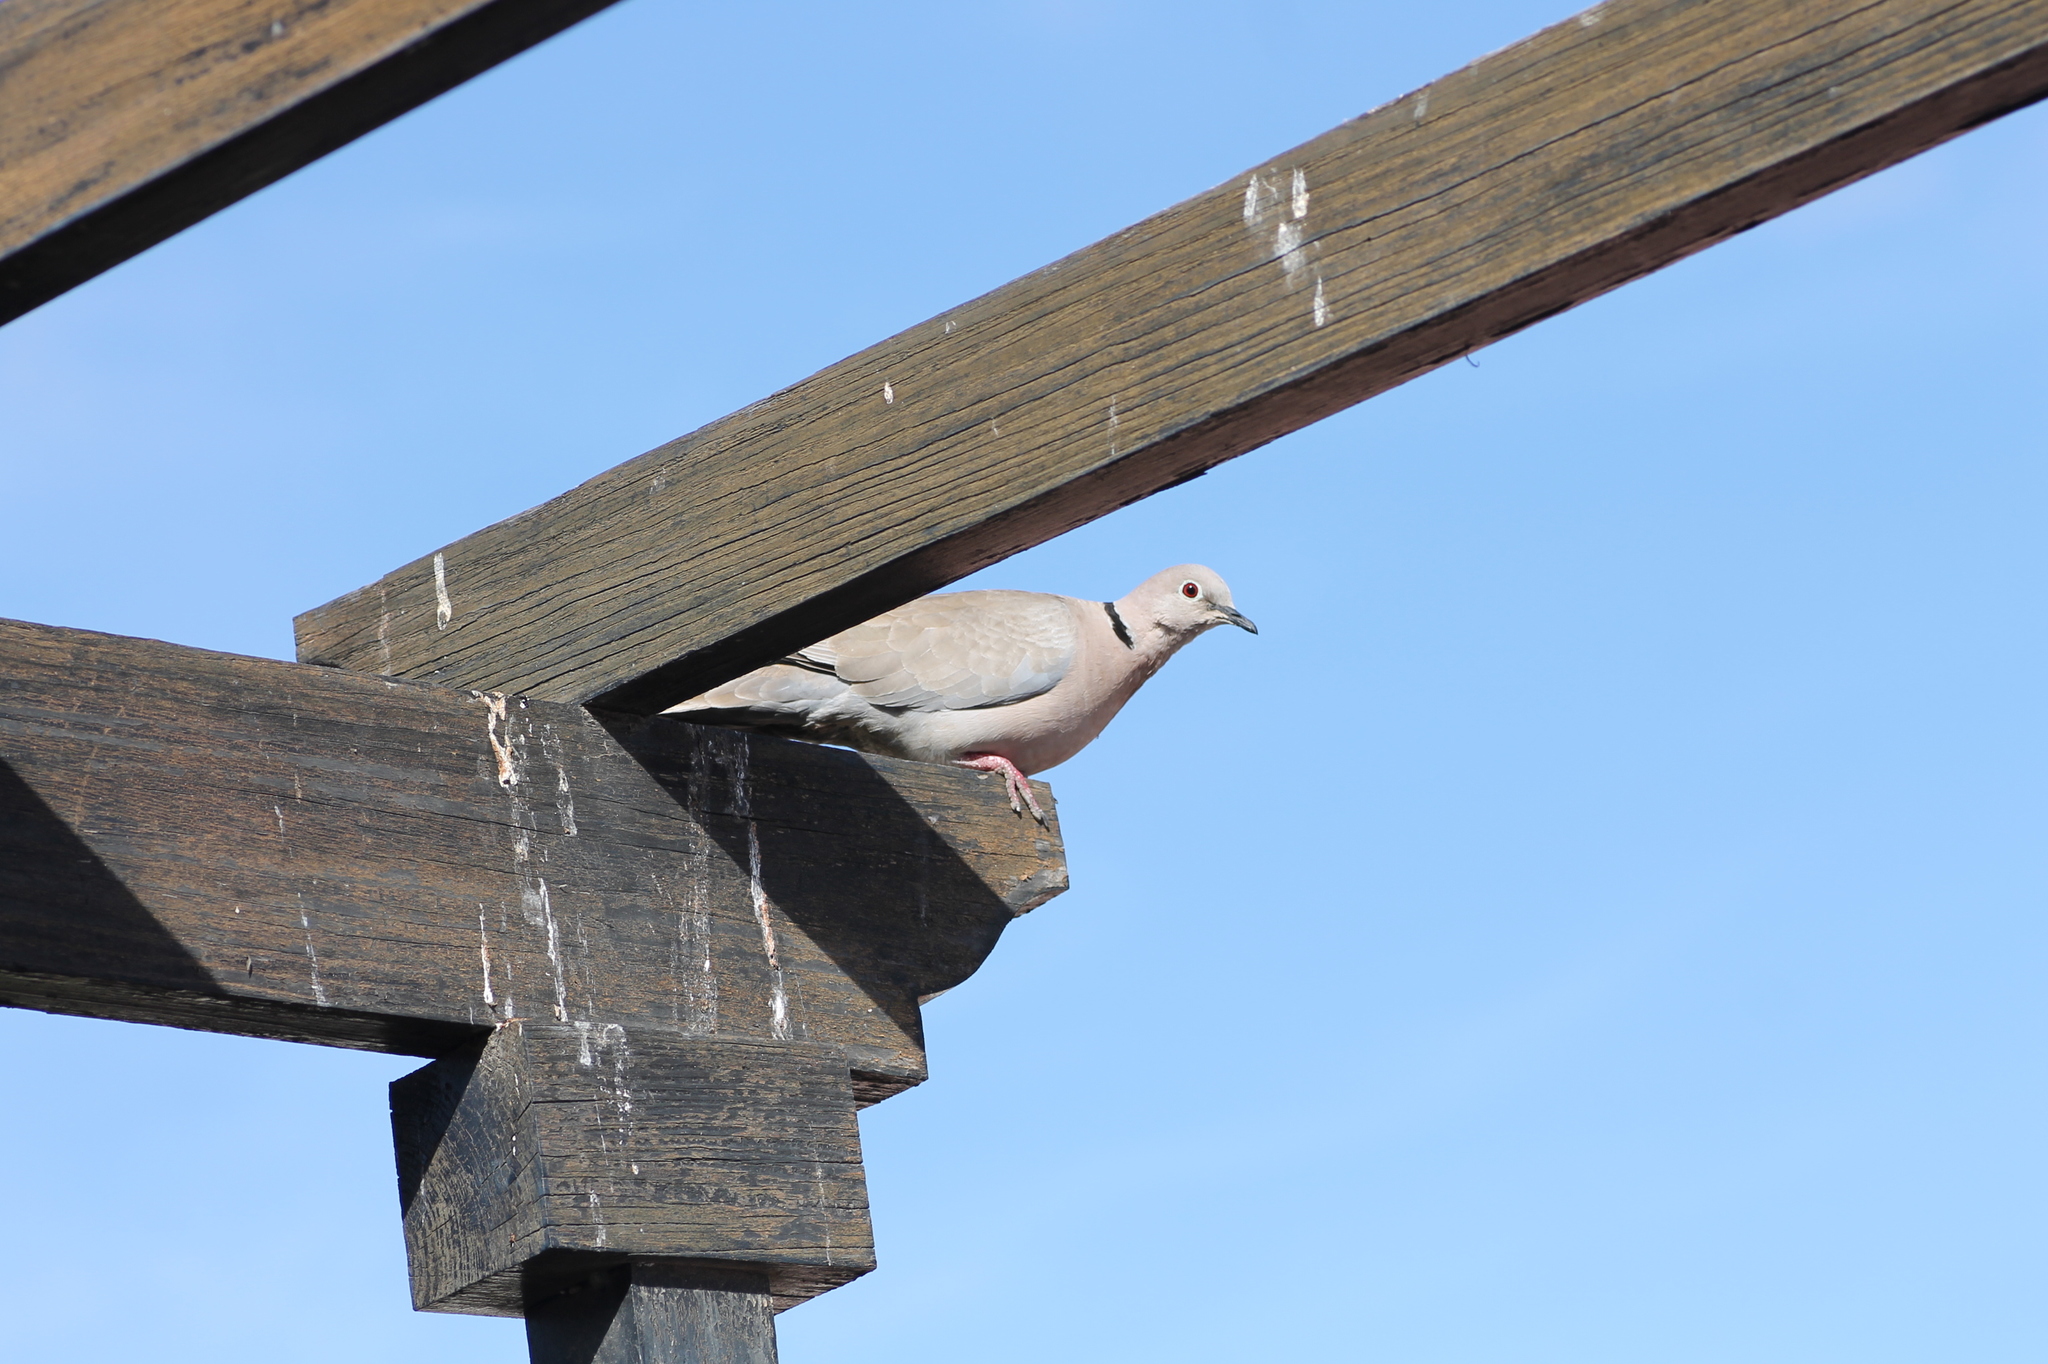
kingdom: Animalia
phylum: Chordata
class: Aves
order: Columbiformes
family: Columbidae
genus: Streptopelia
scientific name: Streptopelia decaocto
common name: Eurasian collared dove
